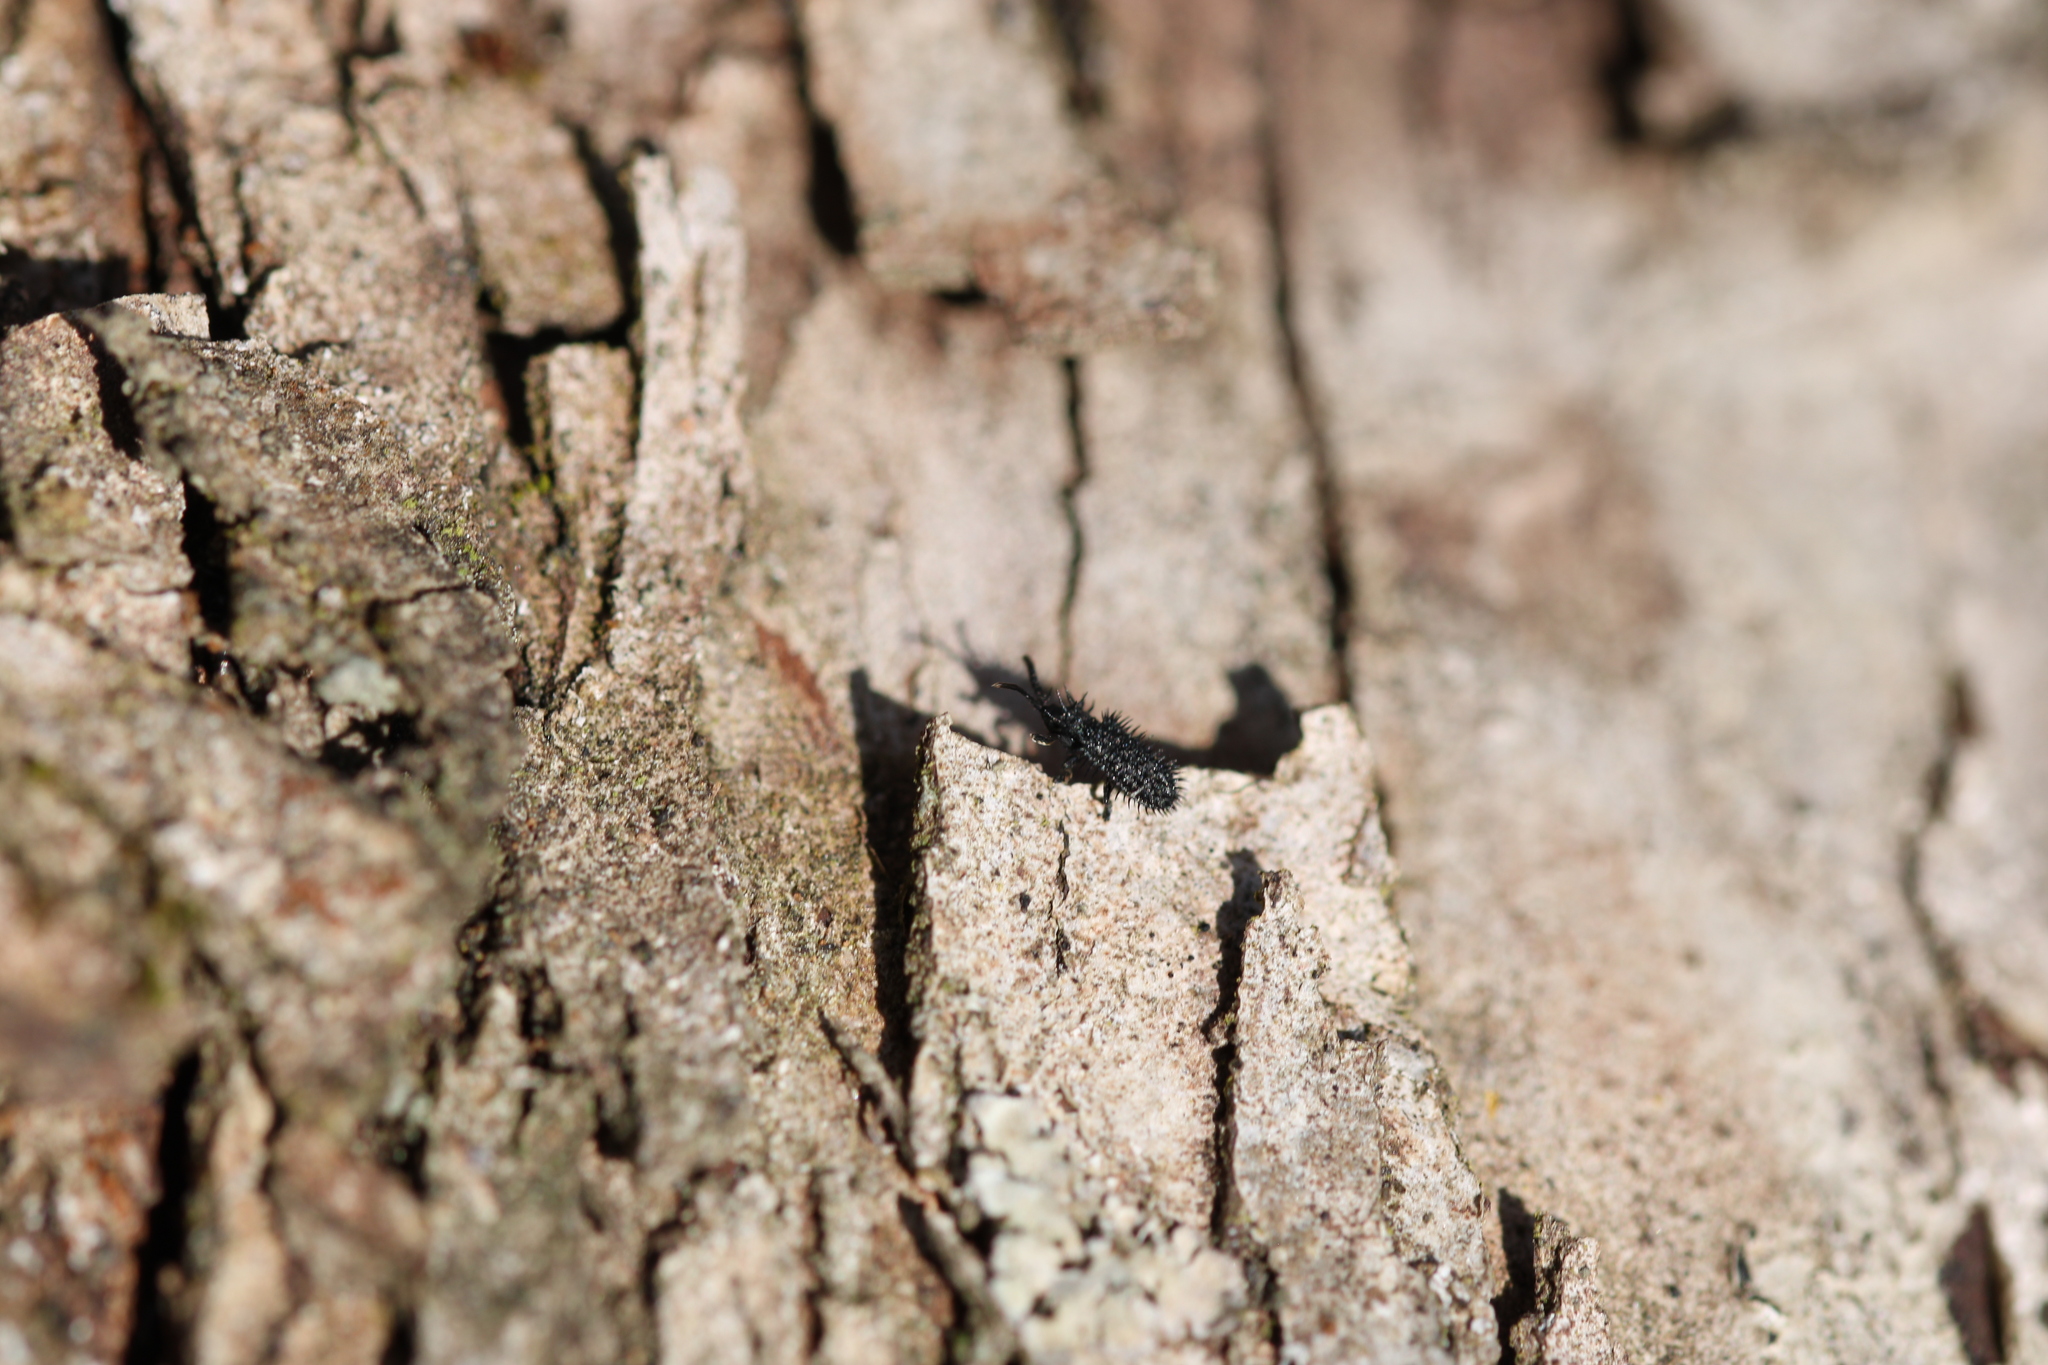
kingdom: Animalia
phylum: Arthropoda
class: Insecta
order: Coleoptera
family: Chrysomelidae
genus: Hispa
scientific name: Hispa atra
